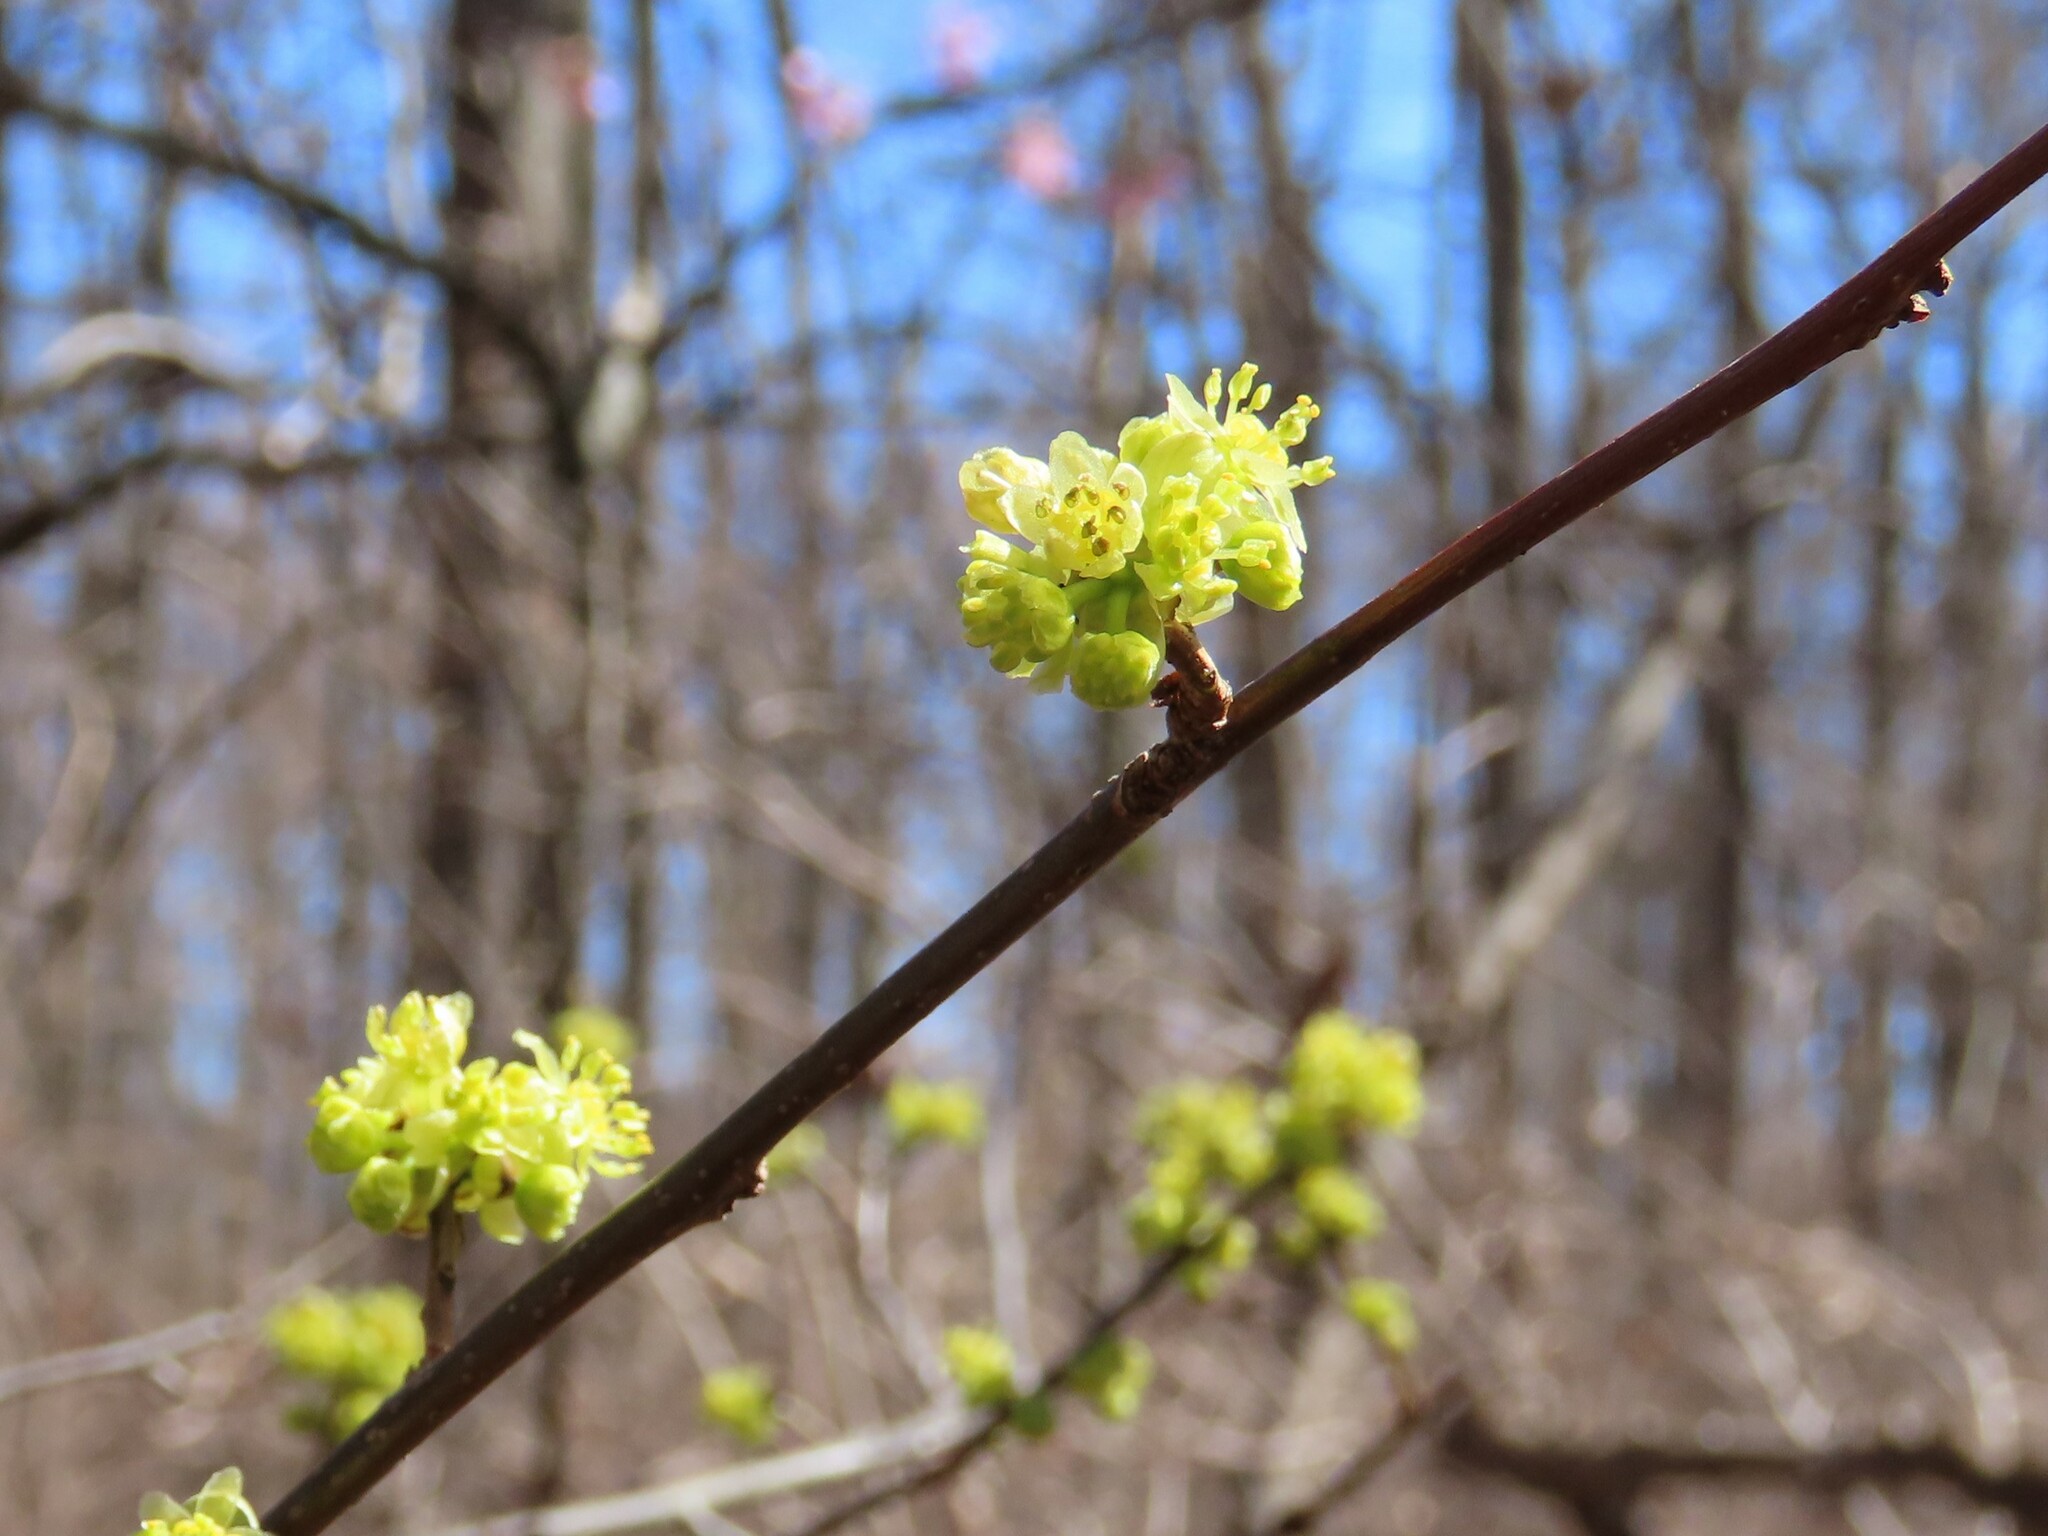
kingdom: Plantae
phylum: Tracheophyta
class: Magnoliopsida
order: Laurales
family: Lauraceae
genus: Lindera
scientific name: Lindera benzoin
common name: Spicebush
